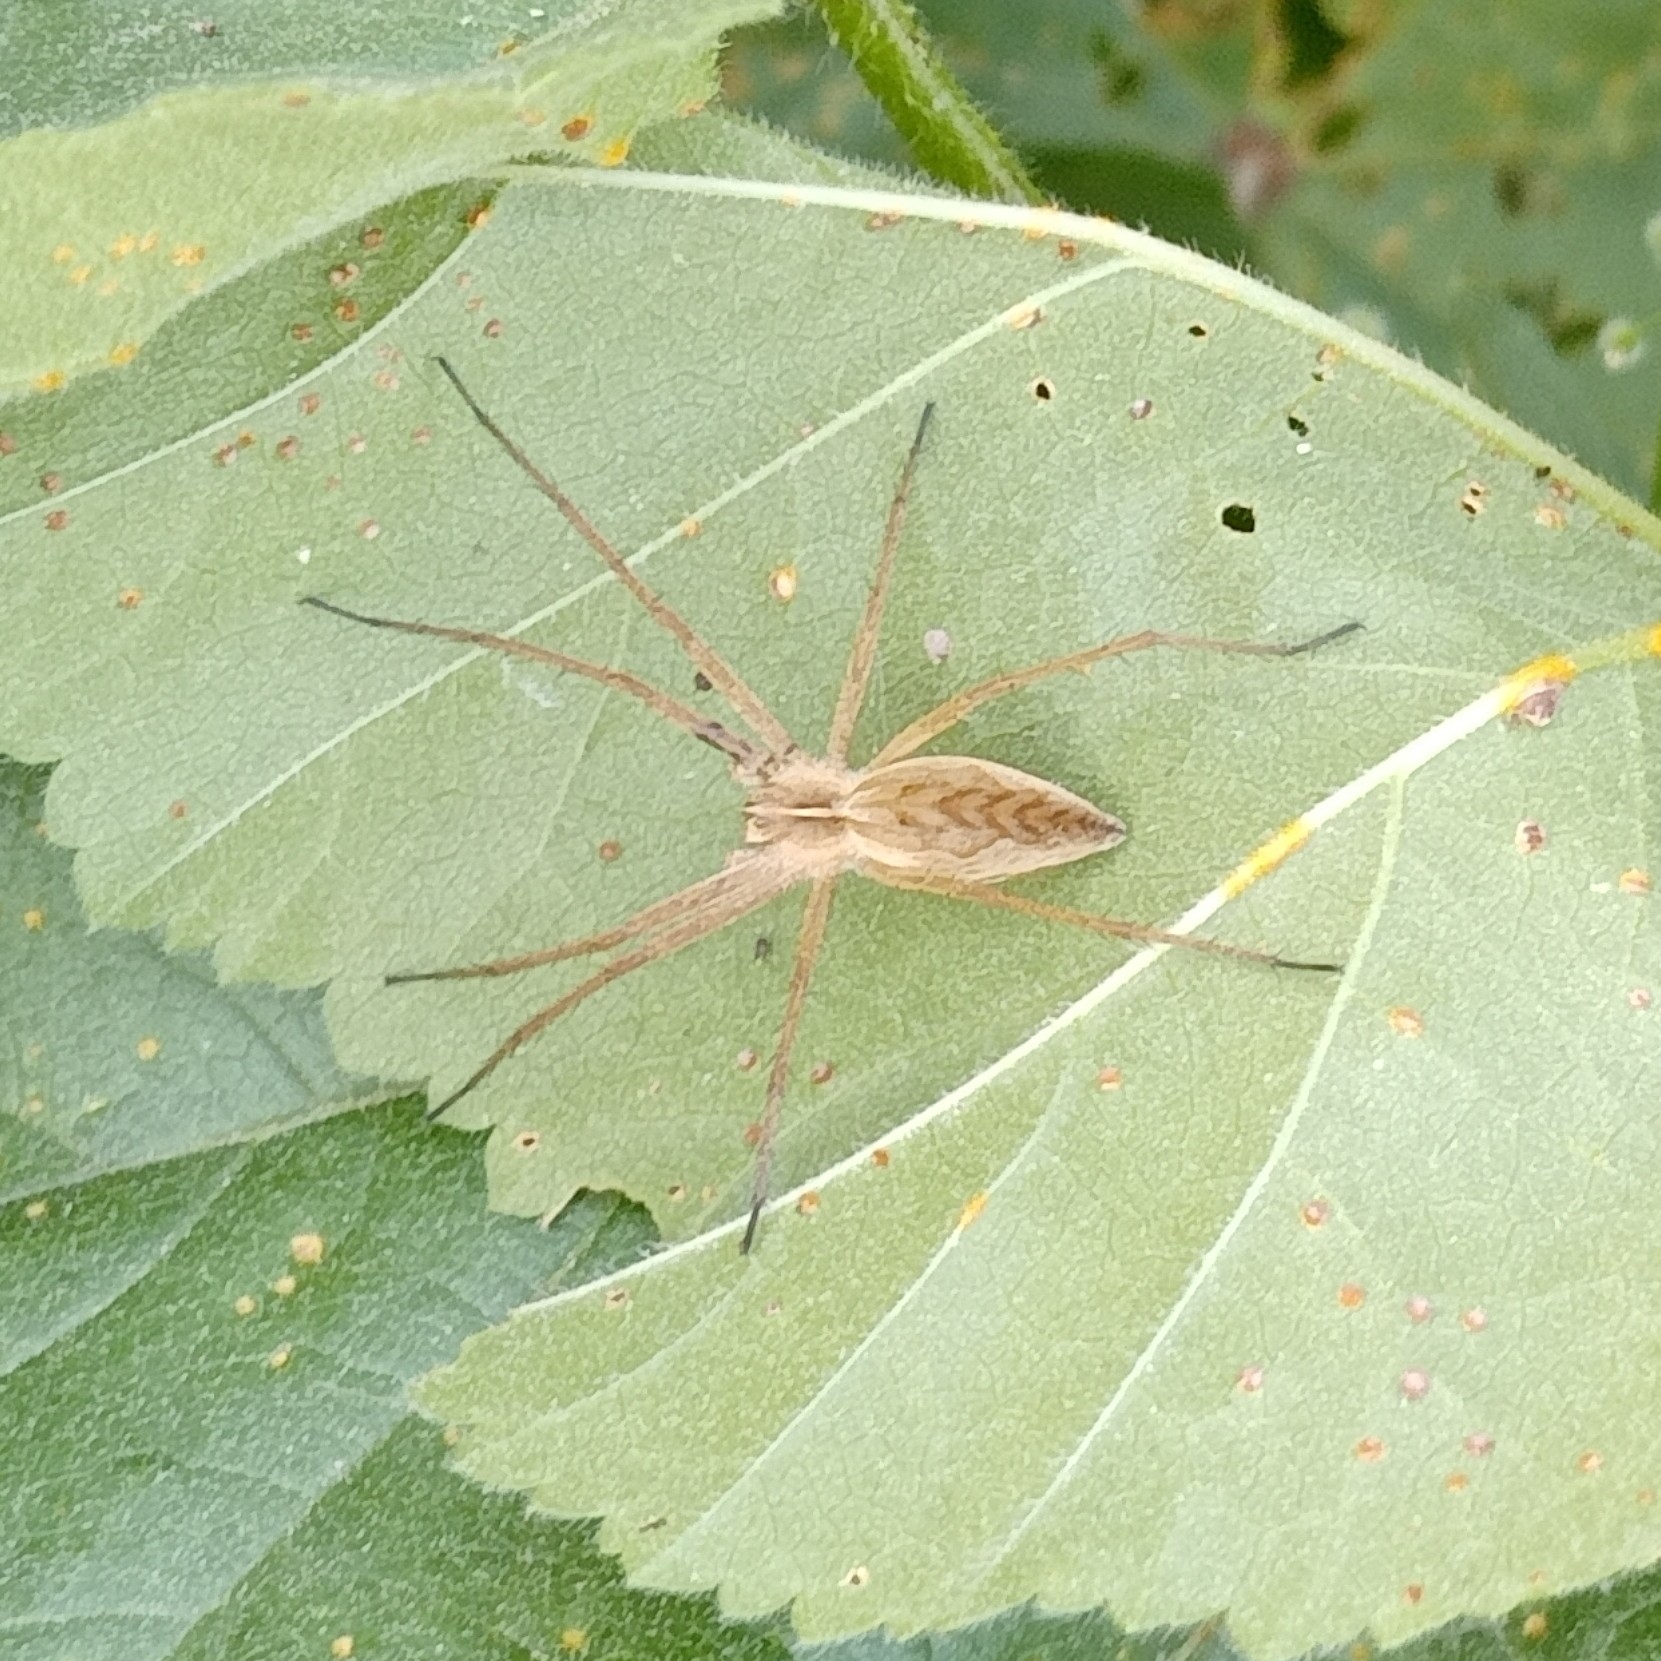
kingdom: Animalia
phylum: Arthropoda
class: Arachnida
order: Araneae
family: Pisauridae
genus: Pisaura
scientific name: Pisaura mirabilis
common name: Tent spider
